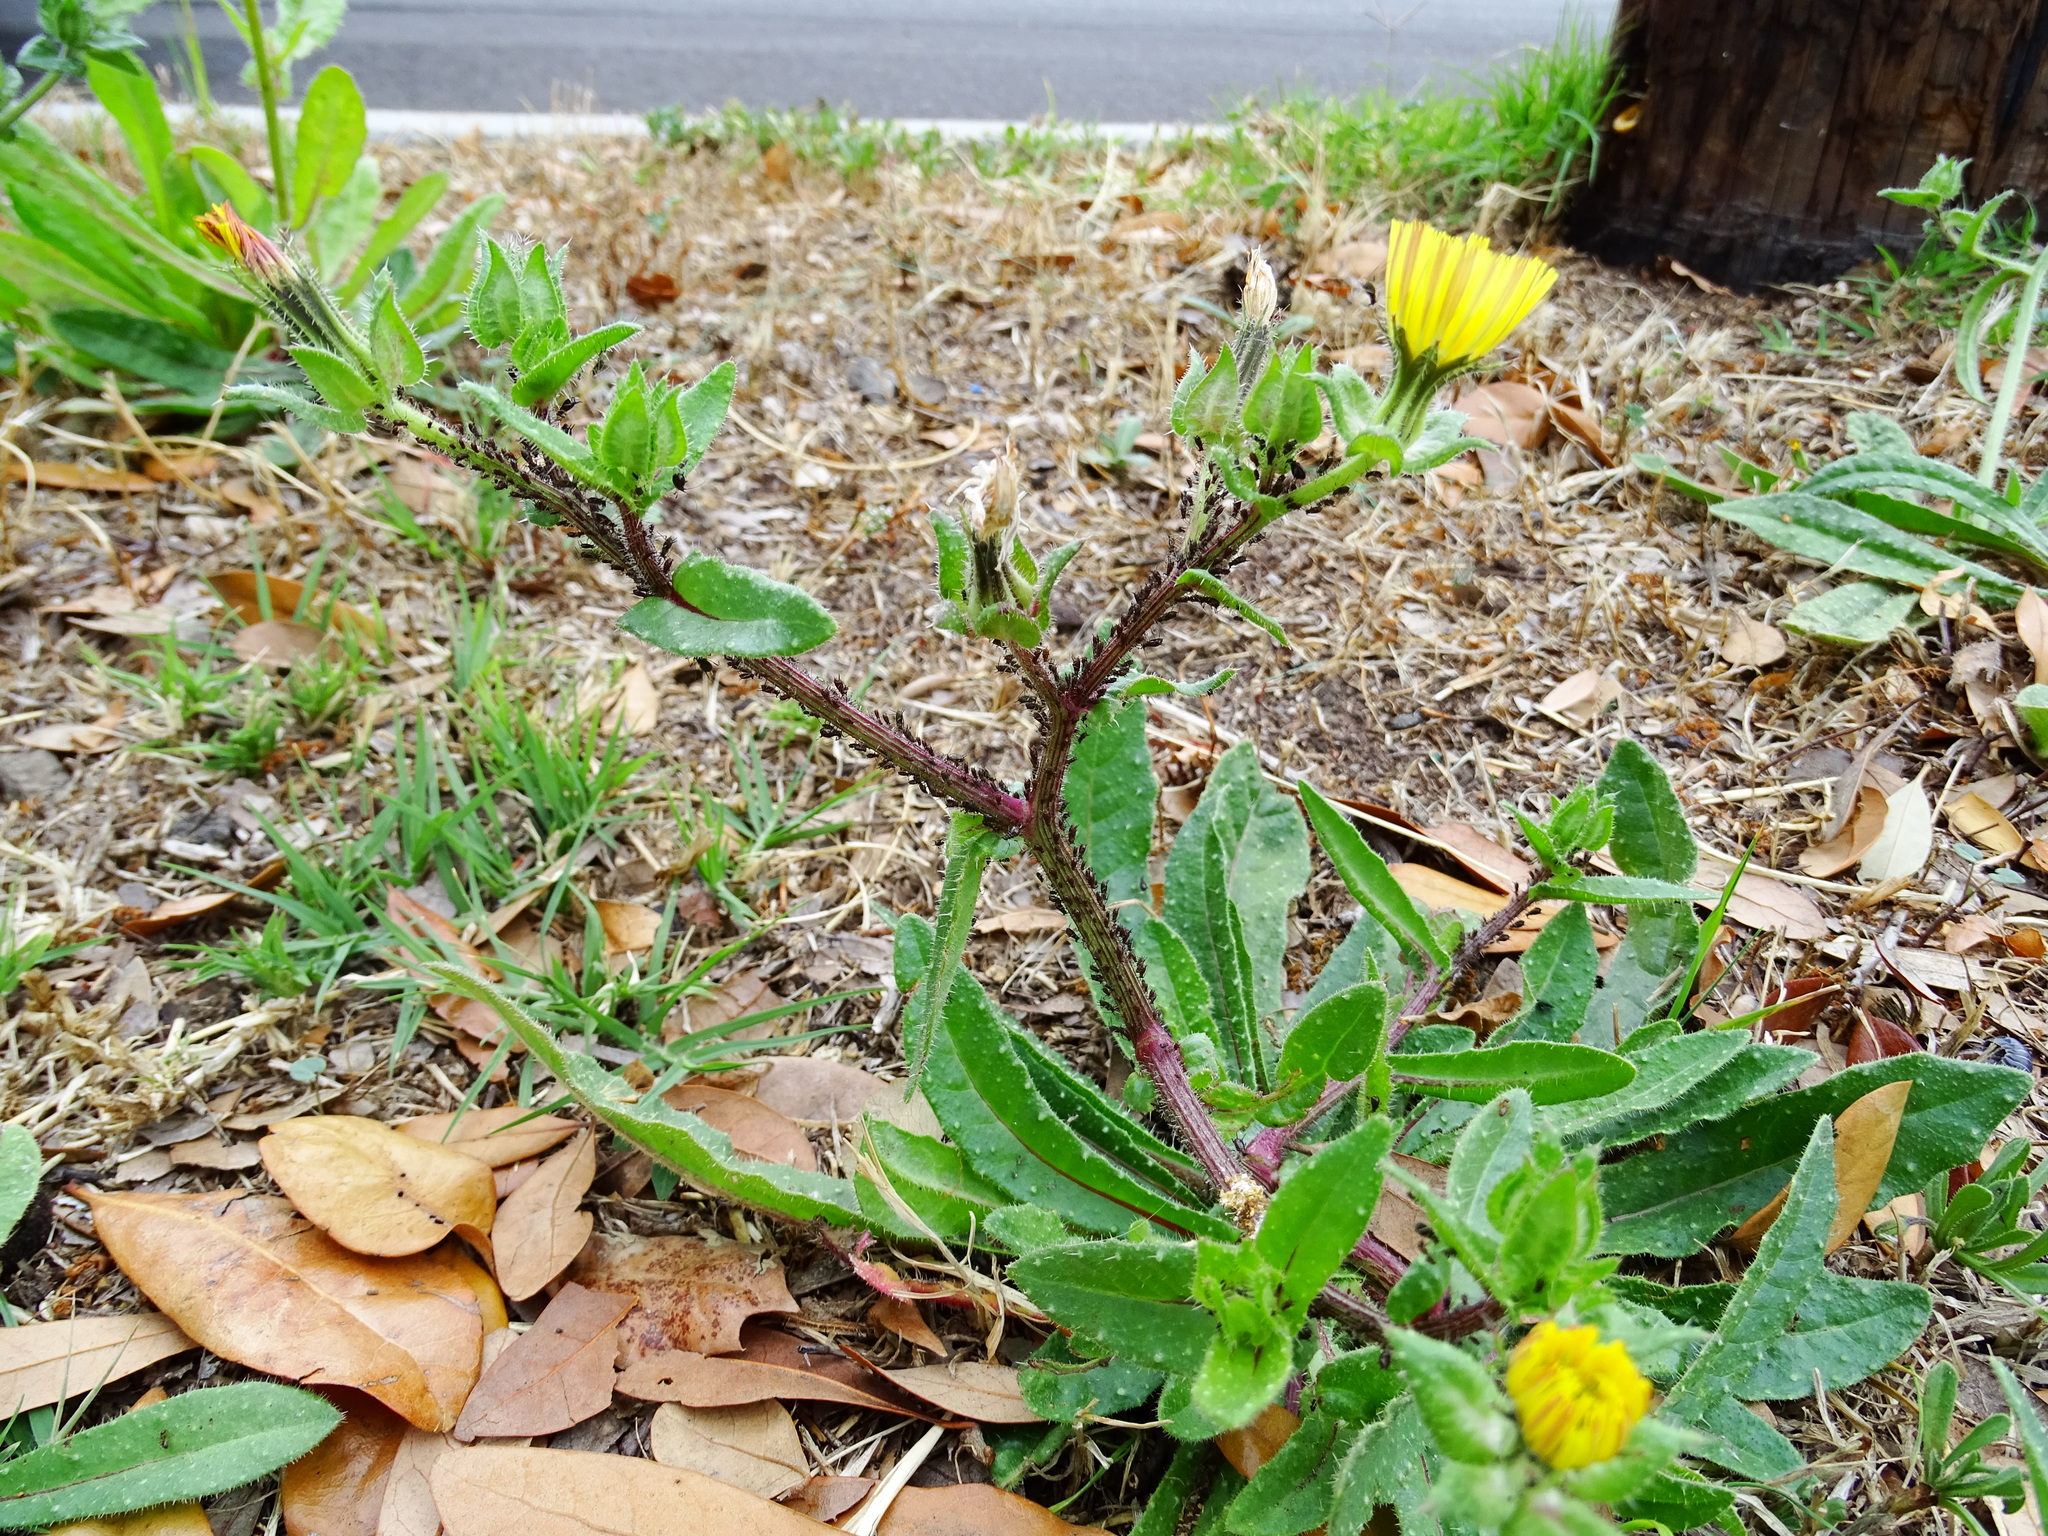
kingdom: Plantae
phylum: Tracheophyta
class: Magnoliopsida
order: Asterales
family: Asteraceae
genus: Helminthotheca
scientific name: Helminthotheca echioides
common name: Ox-tongue
